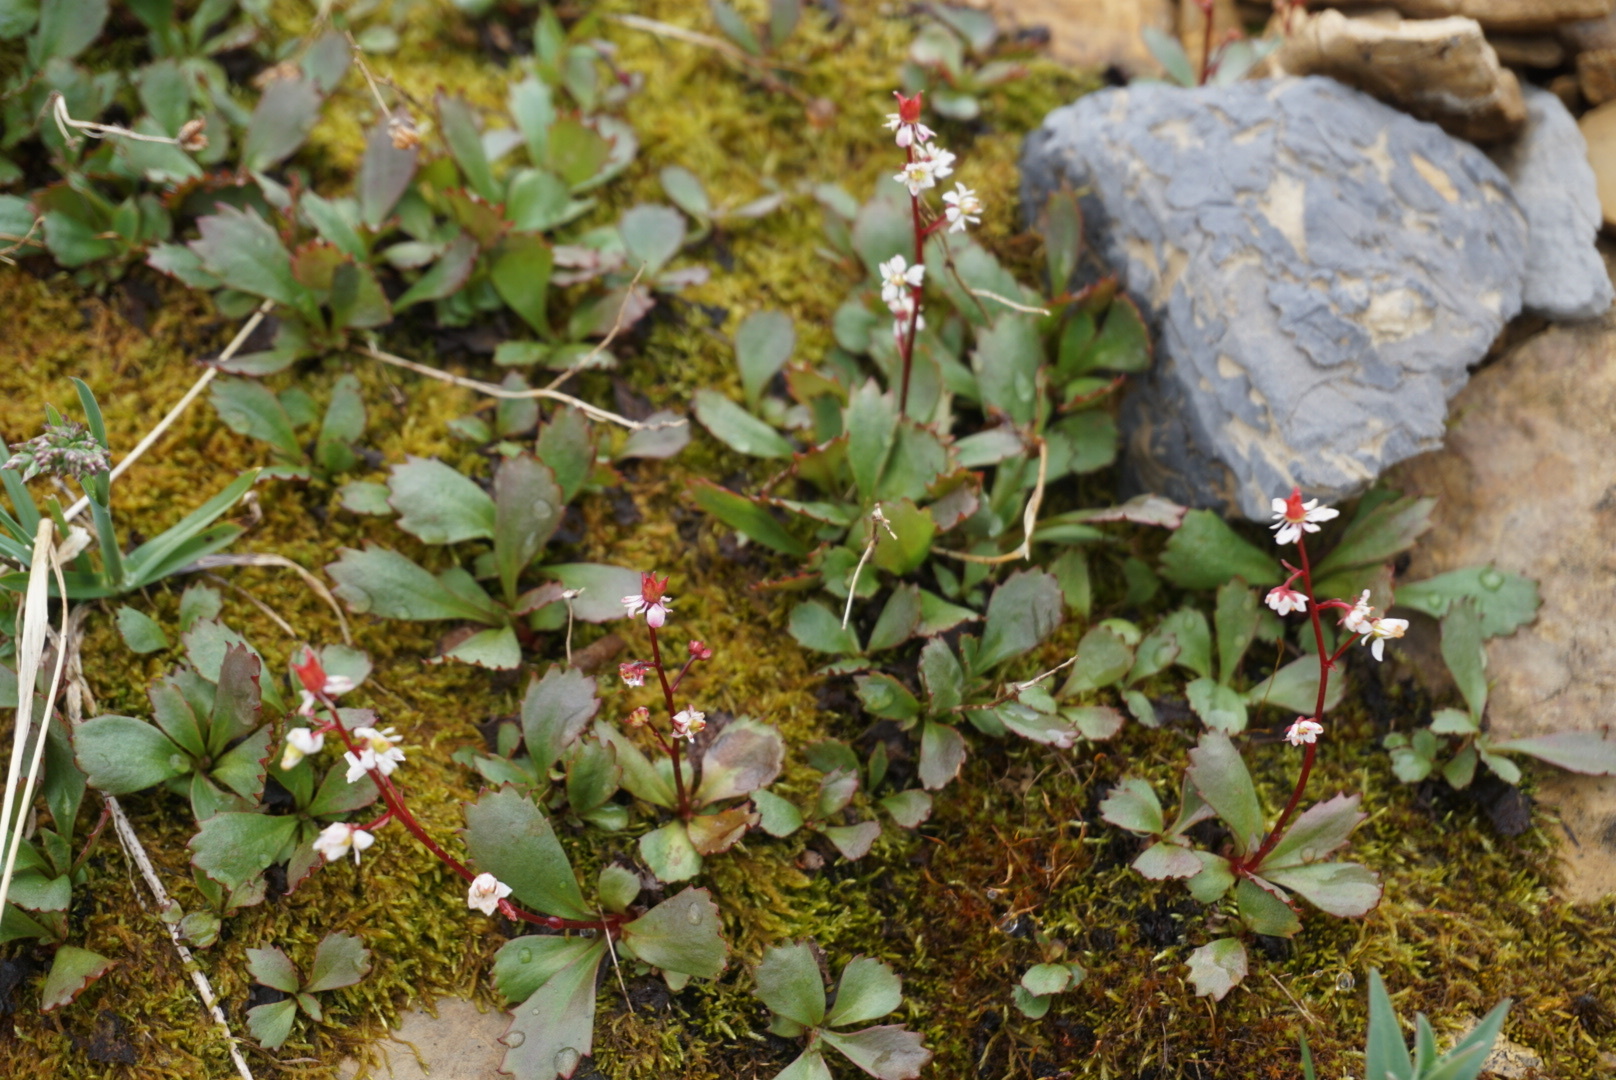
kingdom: Plantae
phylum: Tracheophyta
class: Magnoliopsida
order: Saxifragales
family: Saxifragaceae
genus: Micranthes
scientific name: Micranthes lyallii
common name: Lyall's saxifrage
